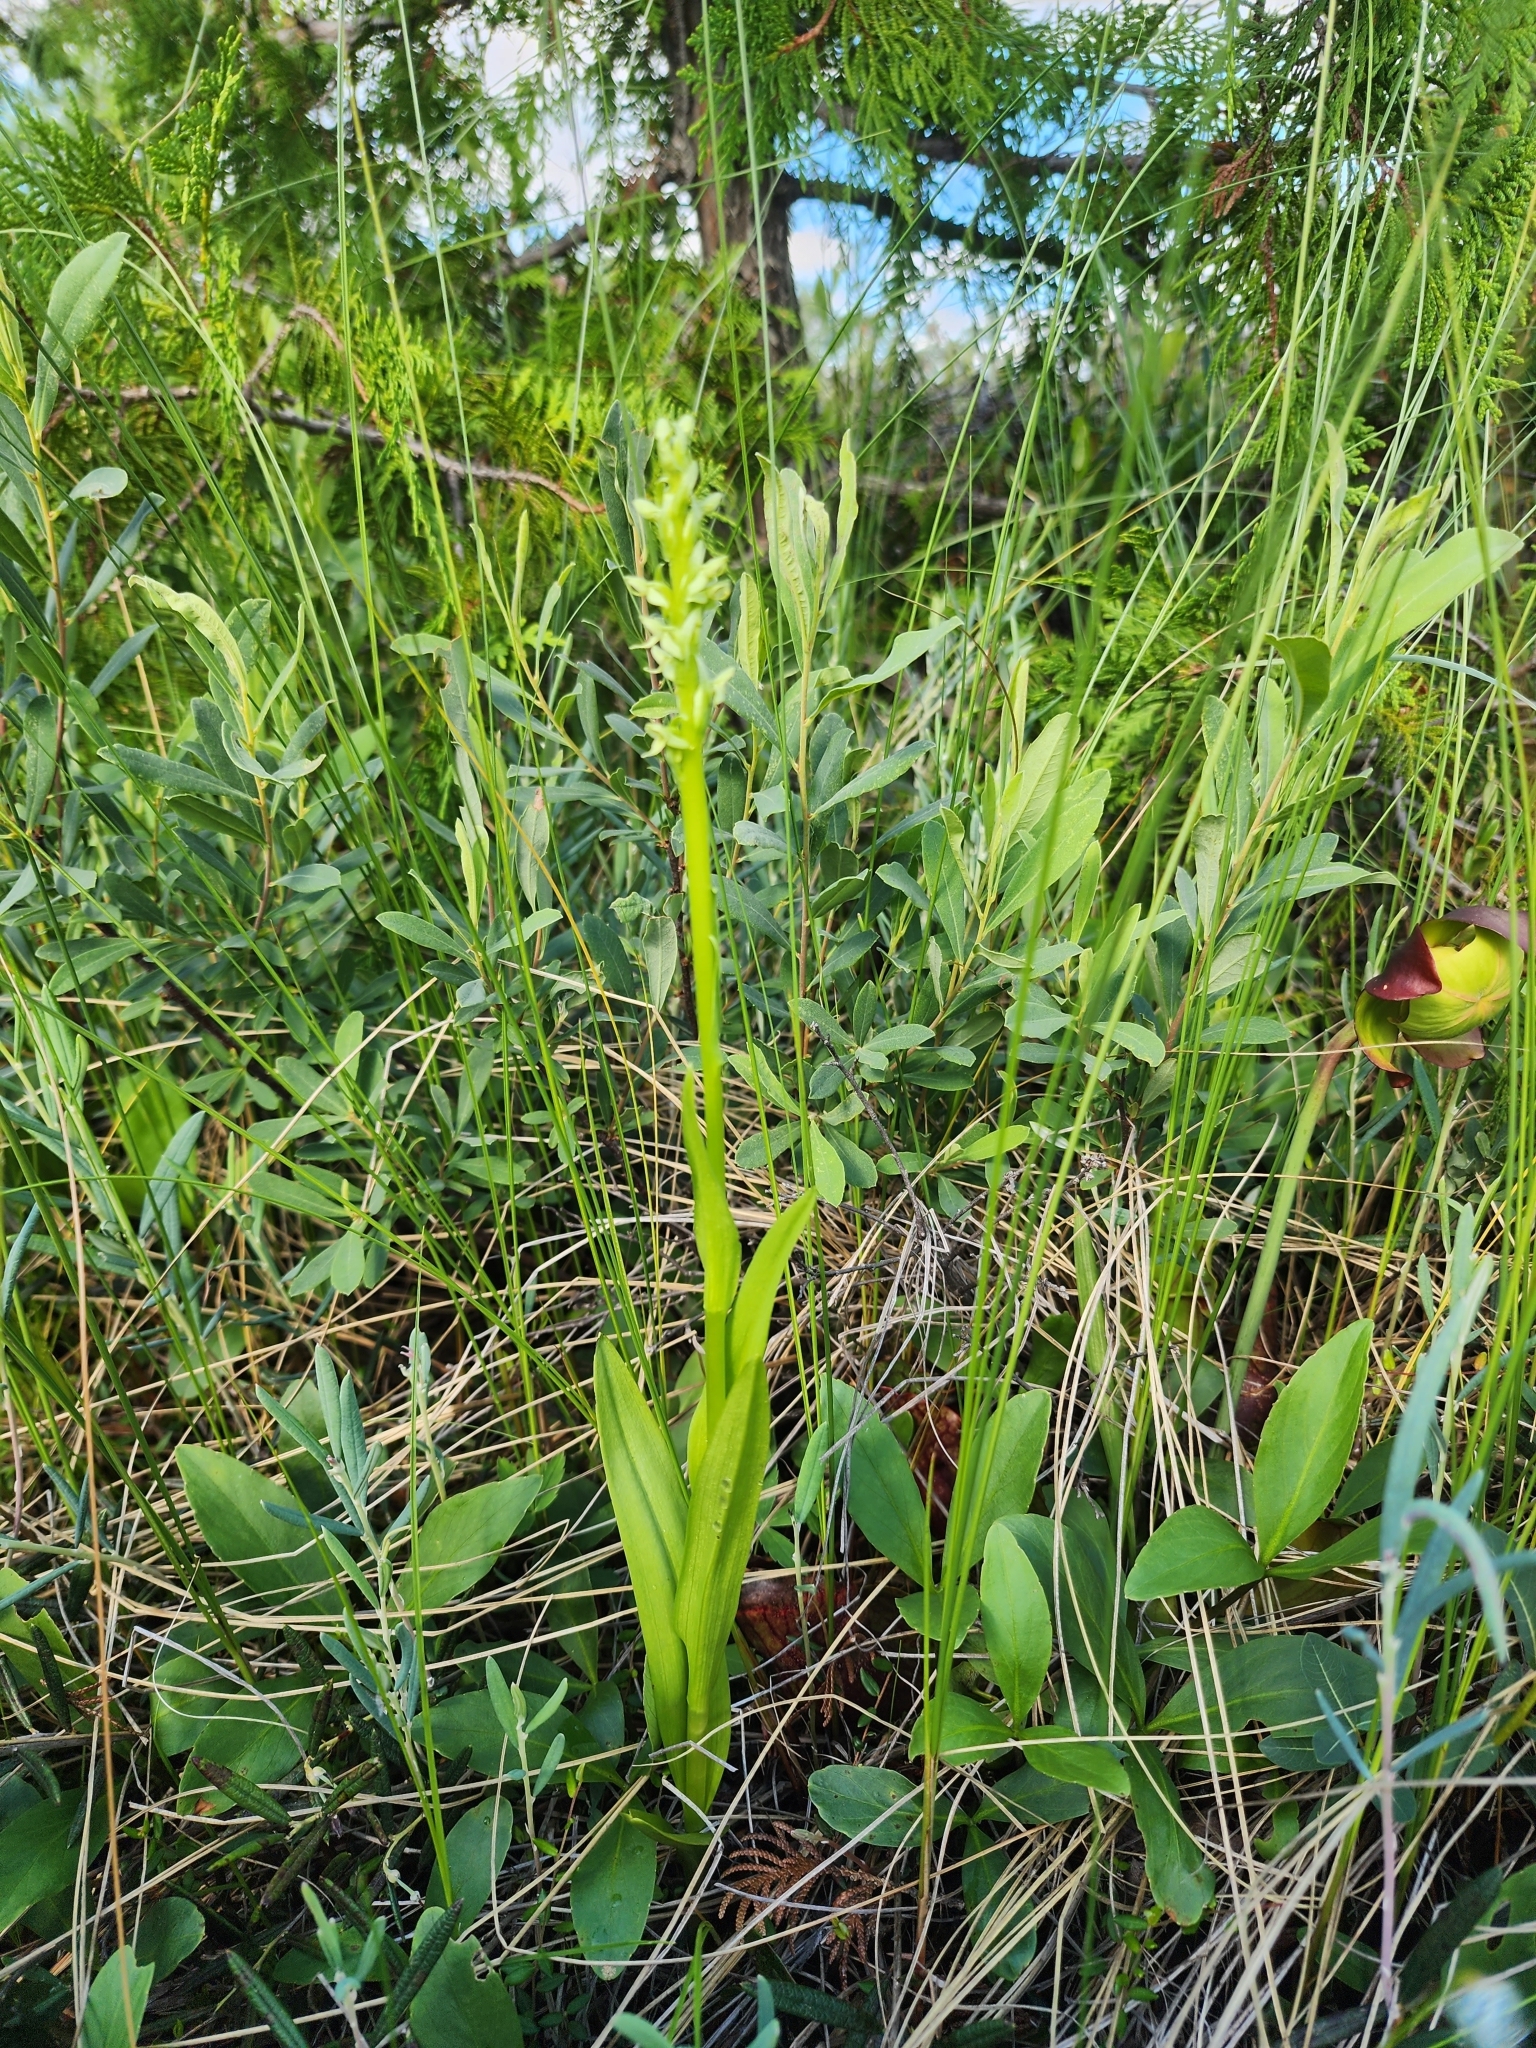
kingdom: Plantae
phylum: Tracheophyta
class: Liliopsida
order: Asparagales
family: Orchidaceae
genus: Platanthera
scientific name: Platanthera huronensis
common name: Fragrant green orchid
